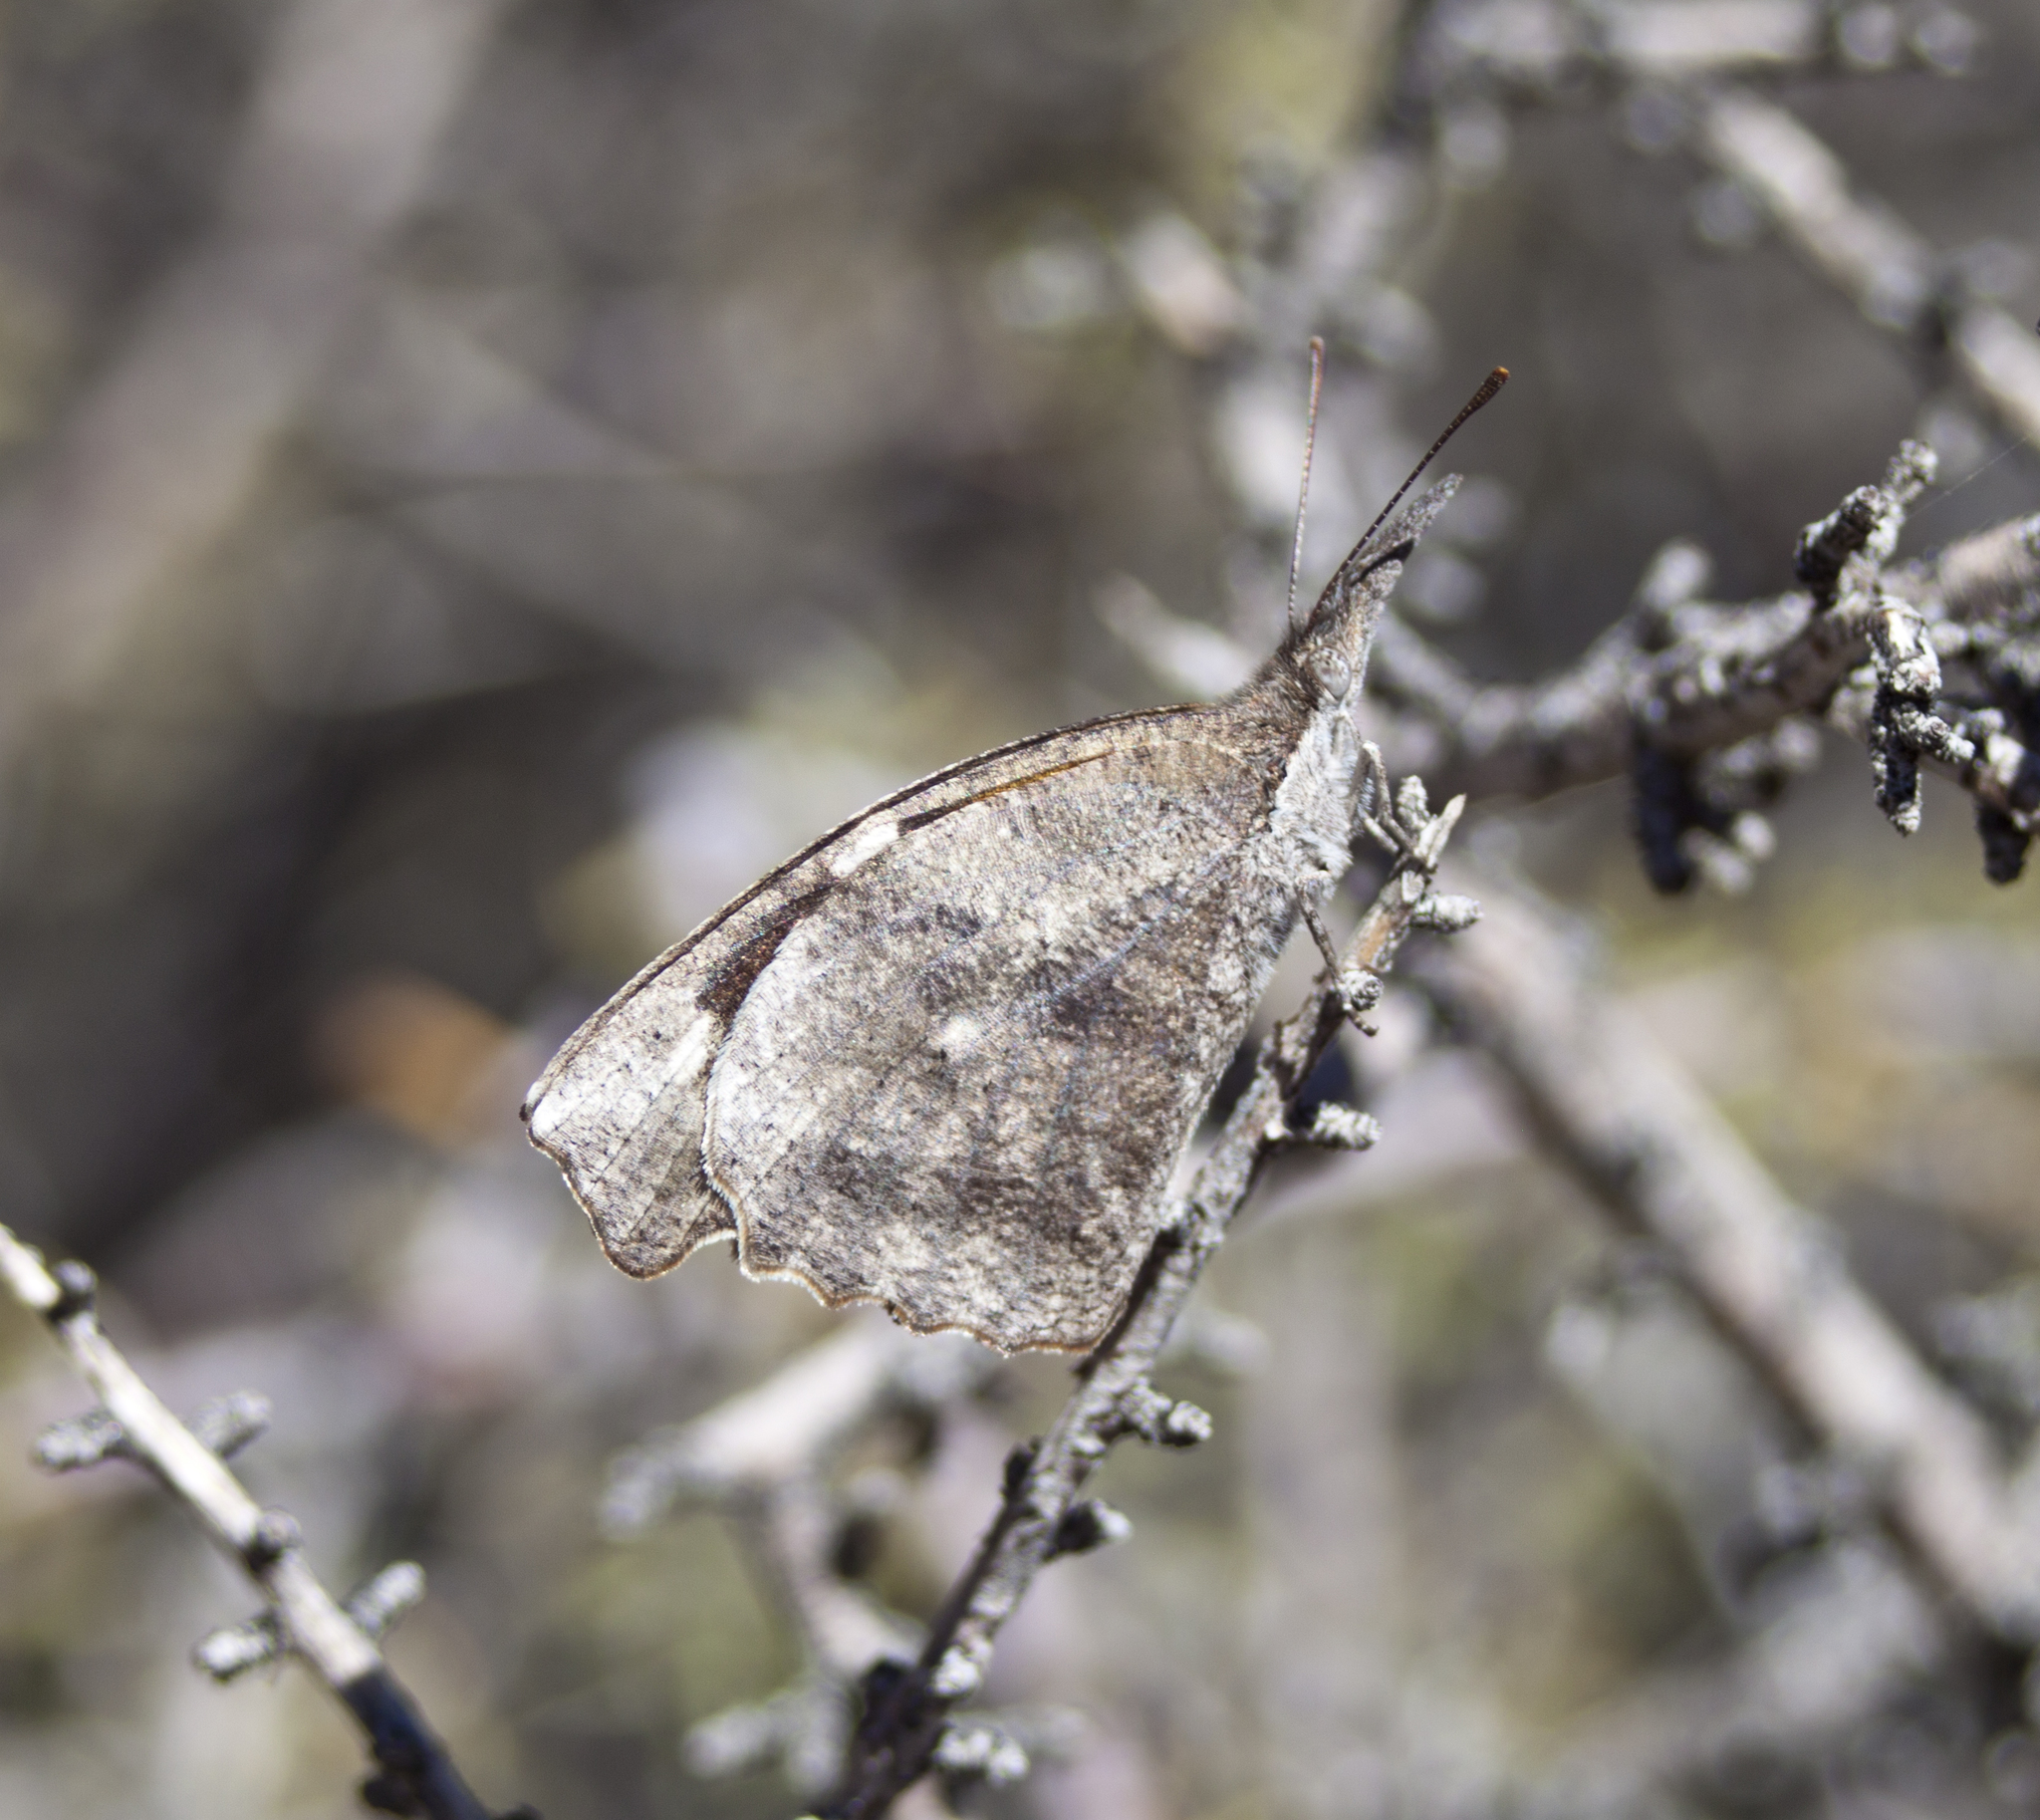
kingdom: Animalia
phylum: Arthropoda
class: Insecta
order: Lepidoptera
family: Nymphalidae
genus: Libytheana
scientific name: Libytheana carinenta
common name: American snout
